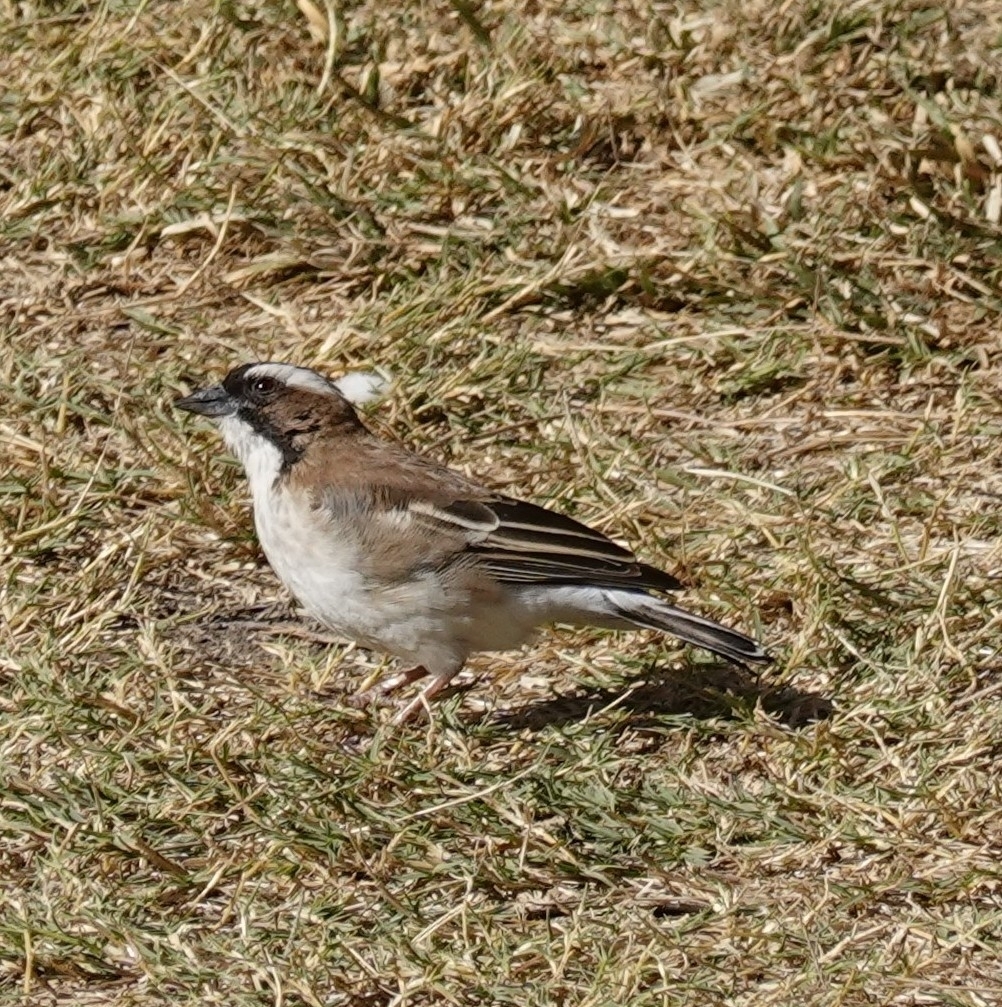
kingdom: Animalia
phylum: Chordata
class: Aves
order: Passeriformes
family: Passeridae
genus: Plocepasser
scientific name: Plocepasser mahali
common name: White-browed sparrow-weaver
